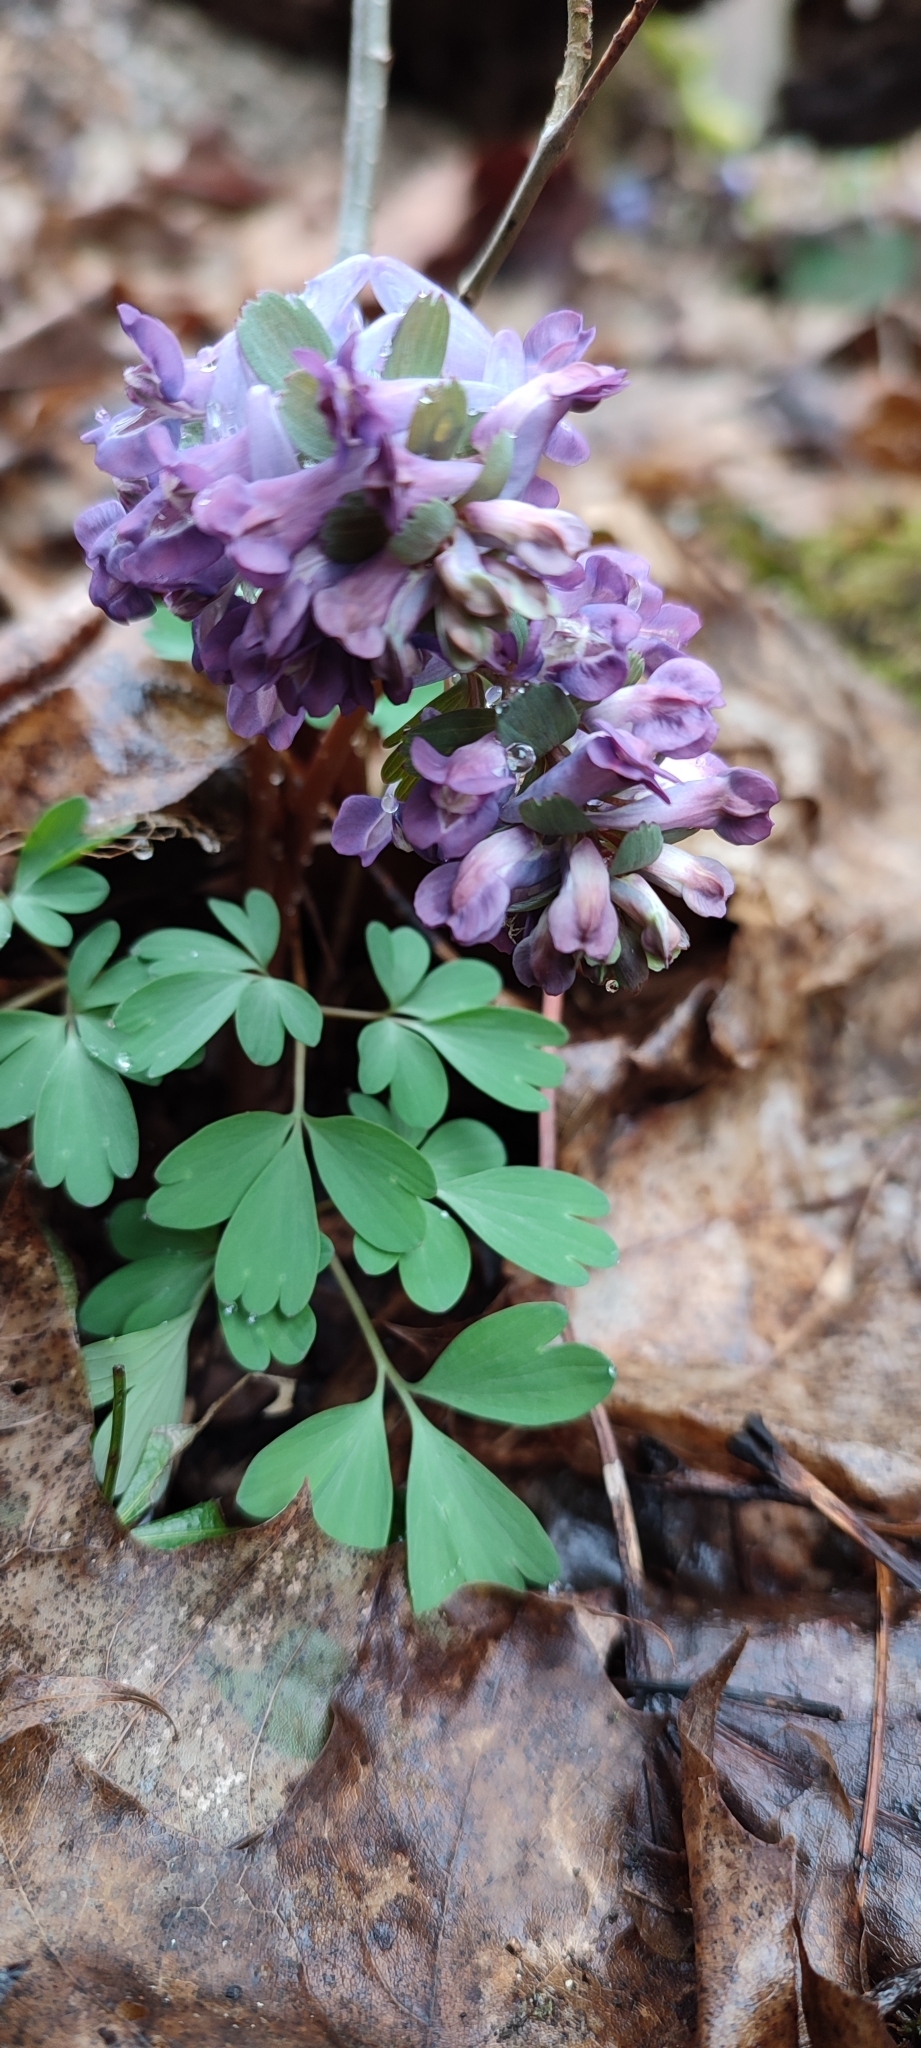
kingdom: Plantae
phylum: Tracheophyta
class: Magnoliopsida
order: Ranunculales
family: Papaveraceae
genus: Corydalis
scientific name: Corydalis solida
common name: Bird-in-a-bush
